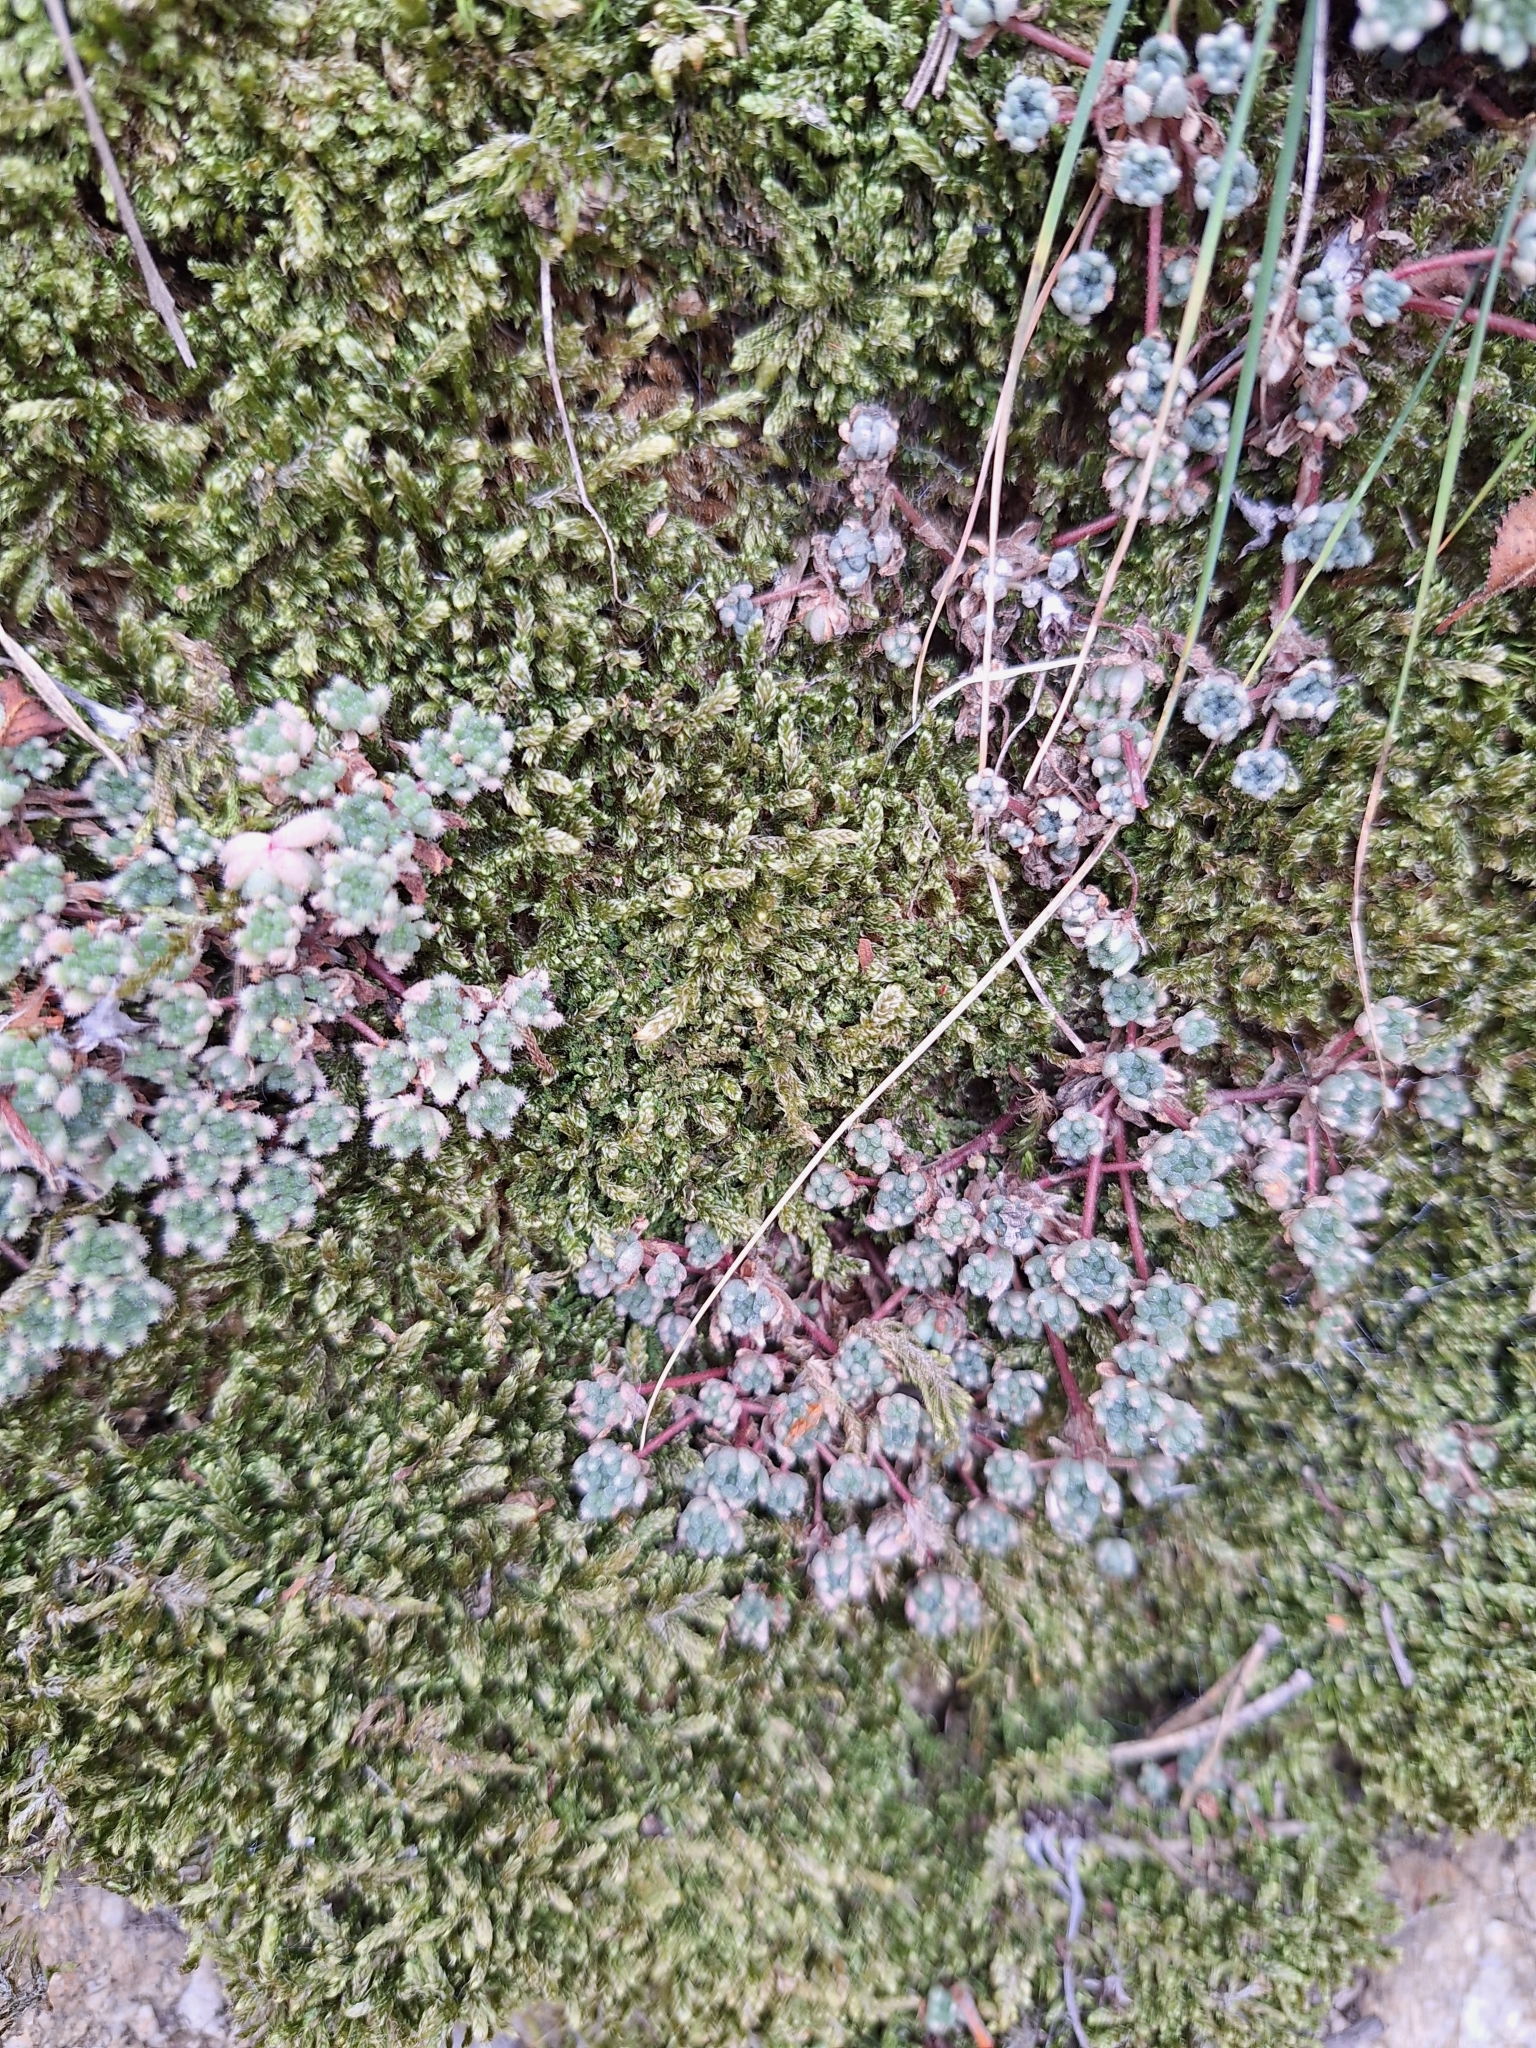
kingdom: Plantae
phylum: Tracheophyta
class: Magnoliopsida
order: Saxifragales
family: Crassulaceae
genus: Sedum
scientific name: Sedum hirsutum
